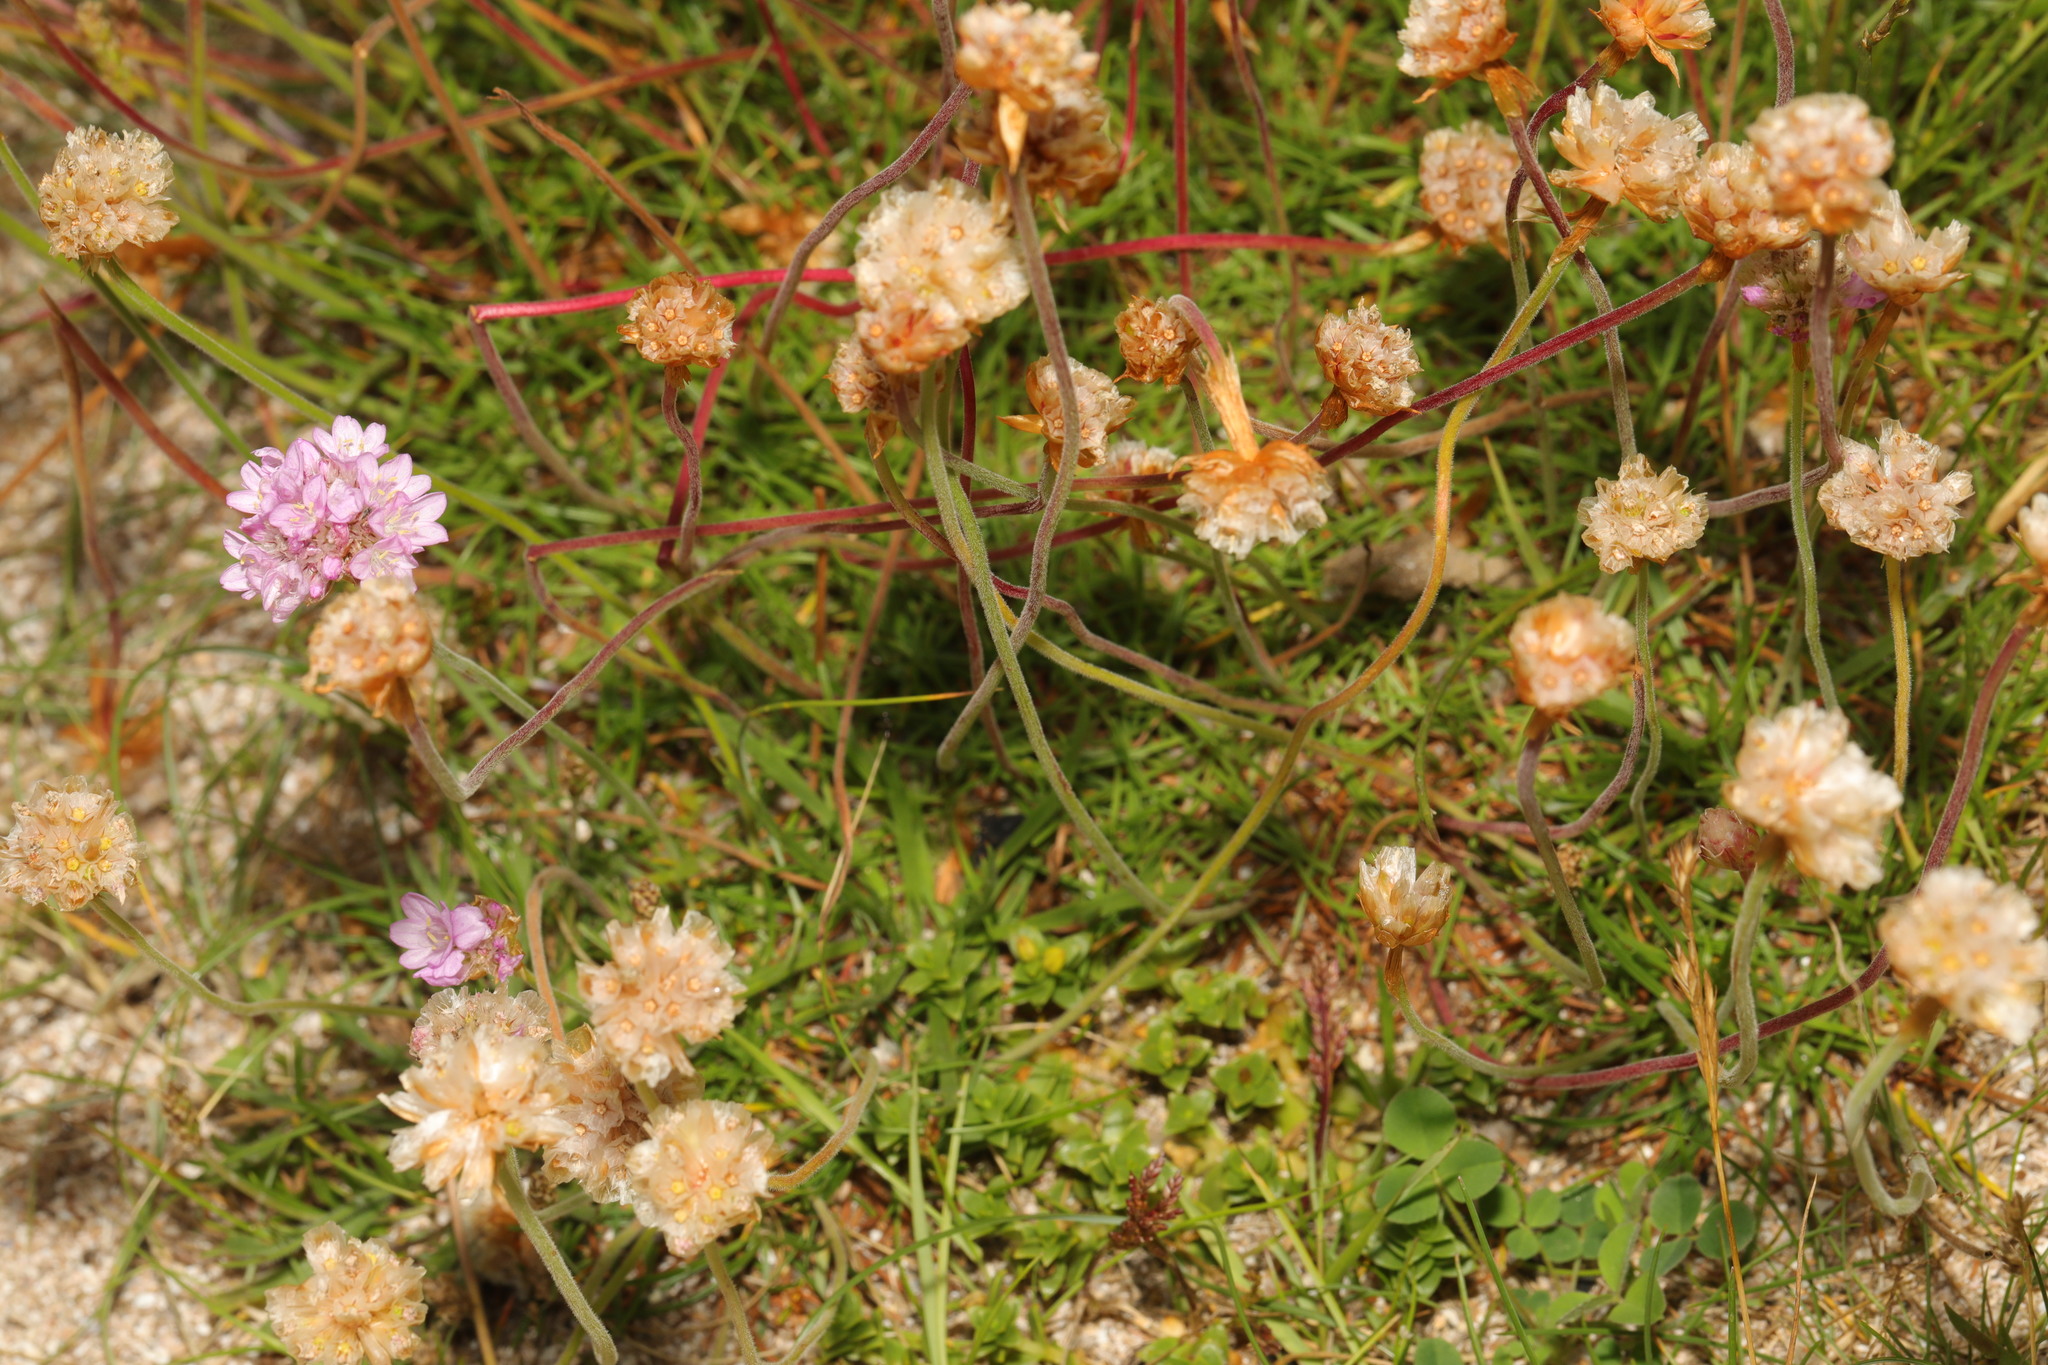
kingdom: Plantae
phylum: Tracheophyta
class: Magnoliopsida
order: Caryophyllales
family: Plumbaginaceae
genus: Armeria
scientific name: Armeria maritima
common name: Thrift
